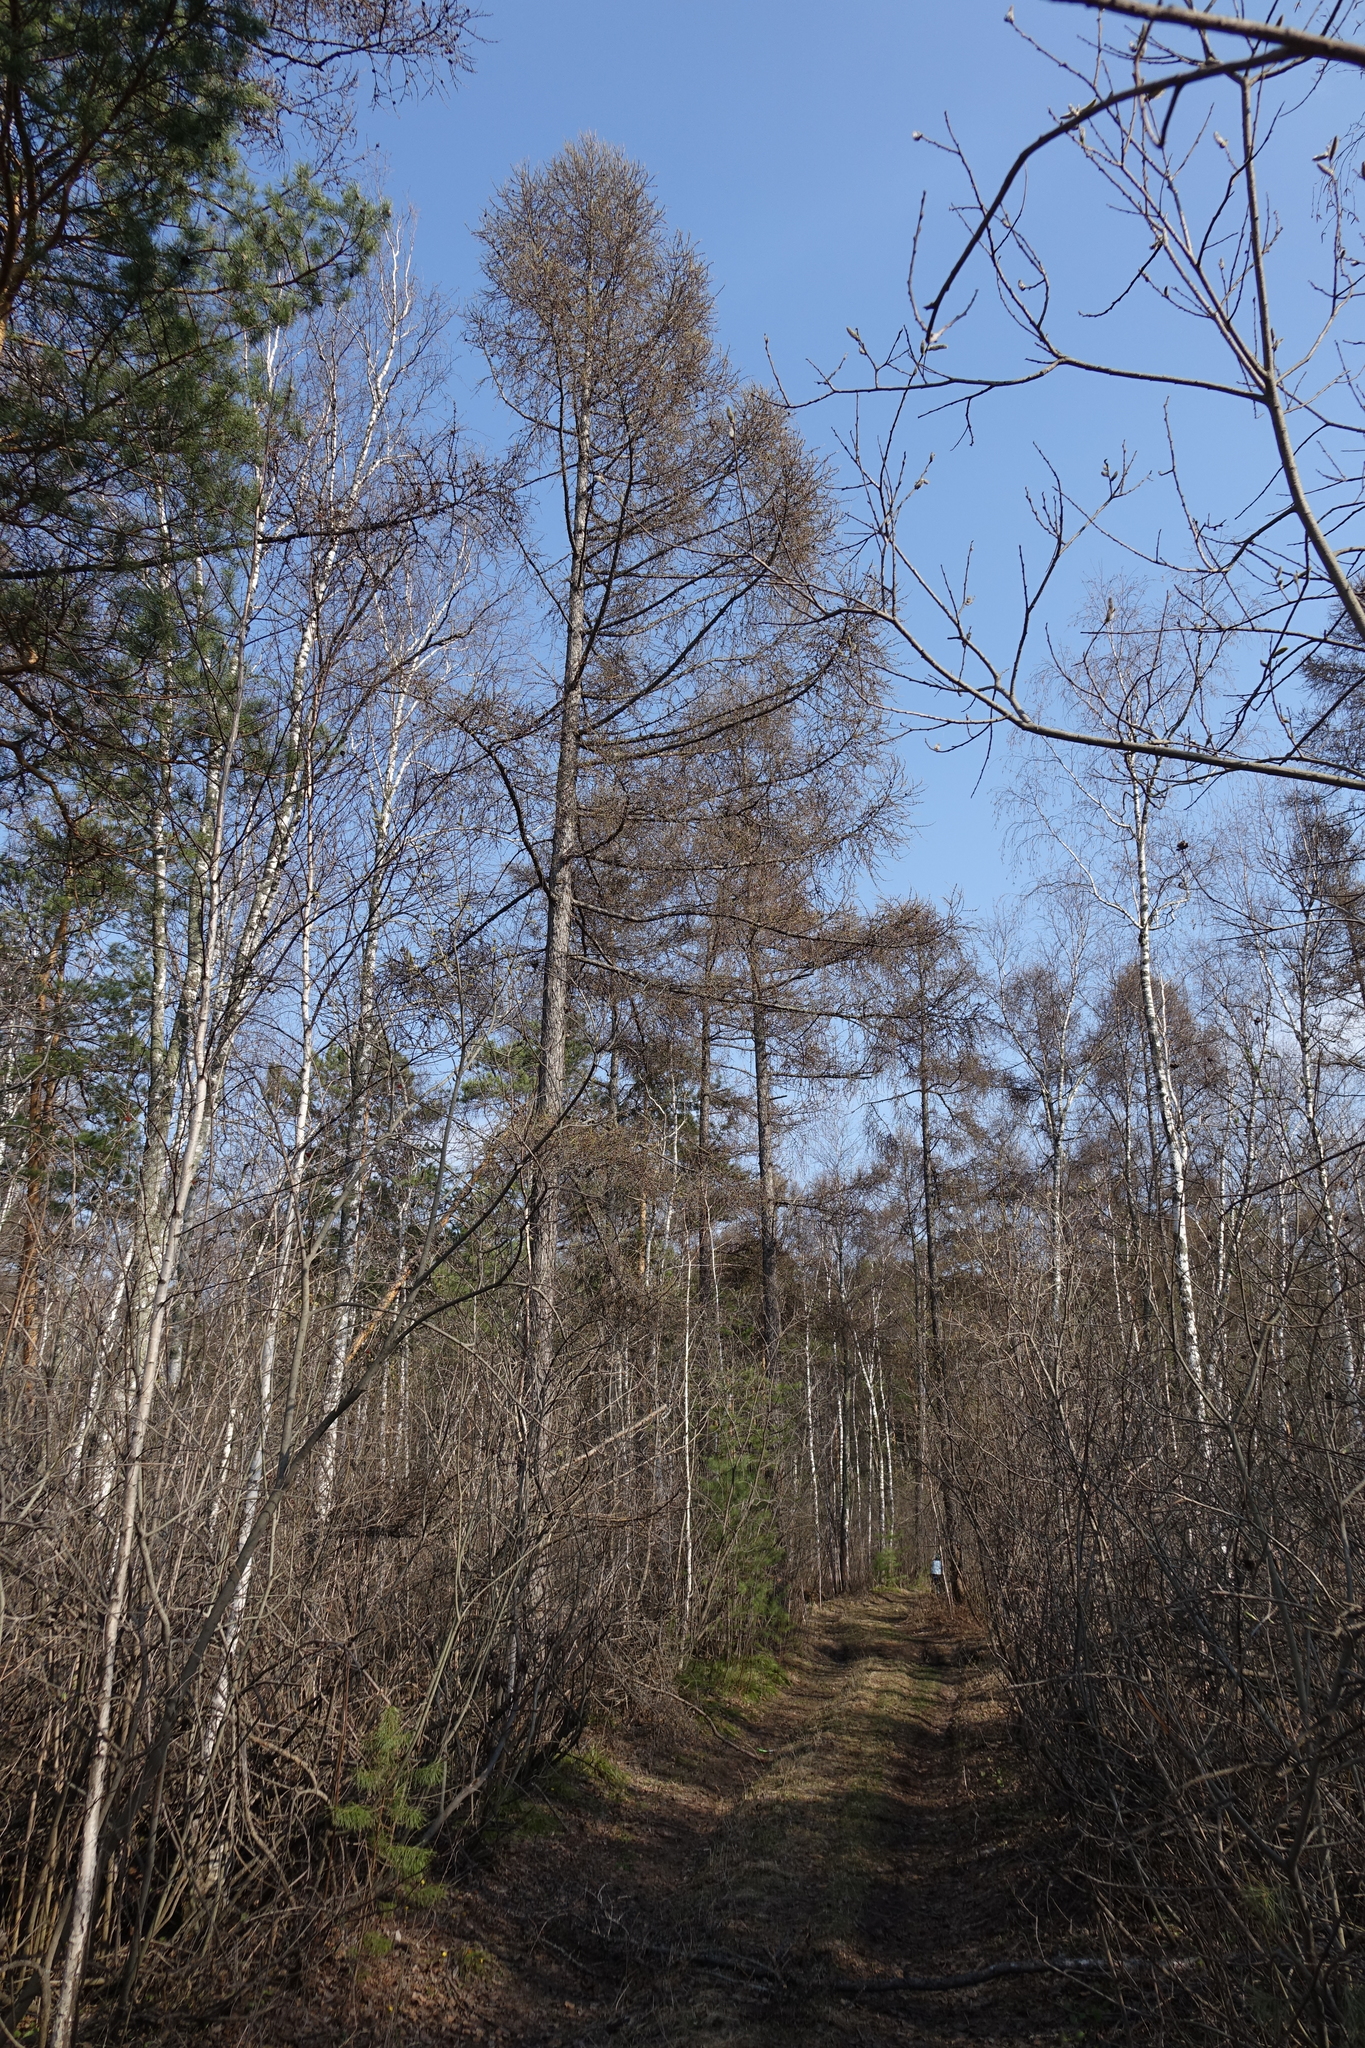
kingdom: Plantae
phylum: Tracheophyta
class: Pinopsida
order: Pinales
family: Pinaceae
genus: Larix
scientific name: Larix sibirica
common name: Siberian larch
